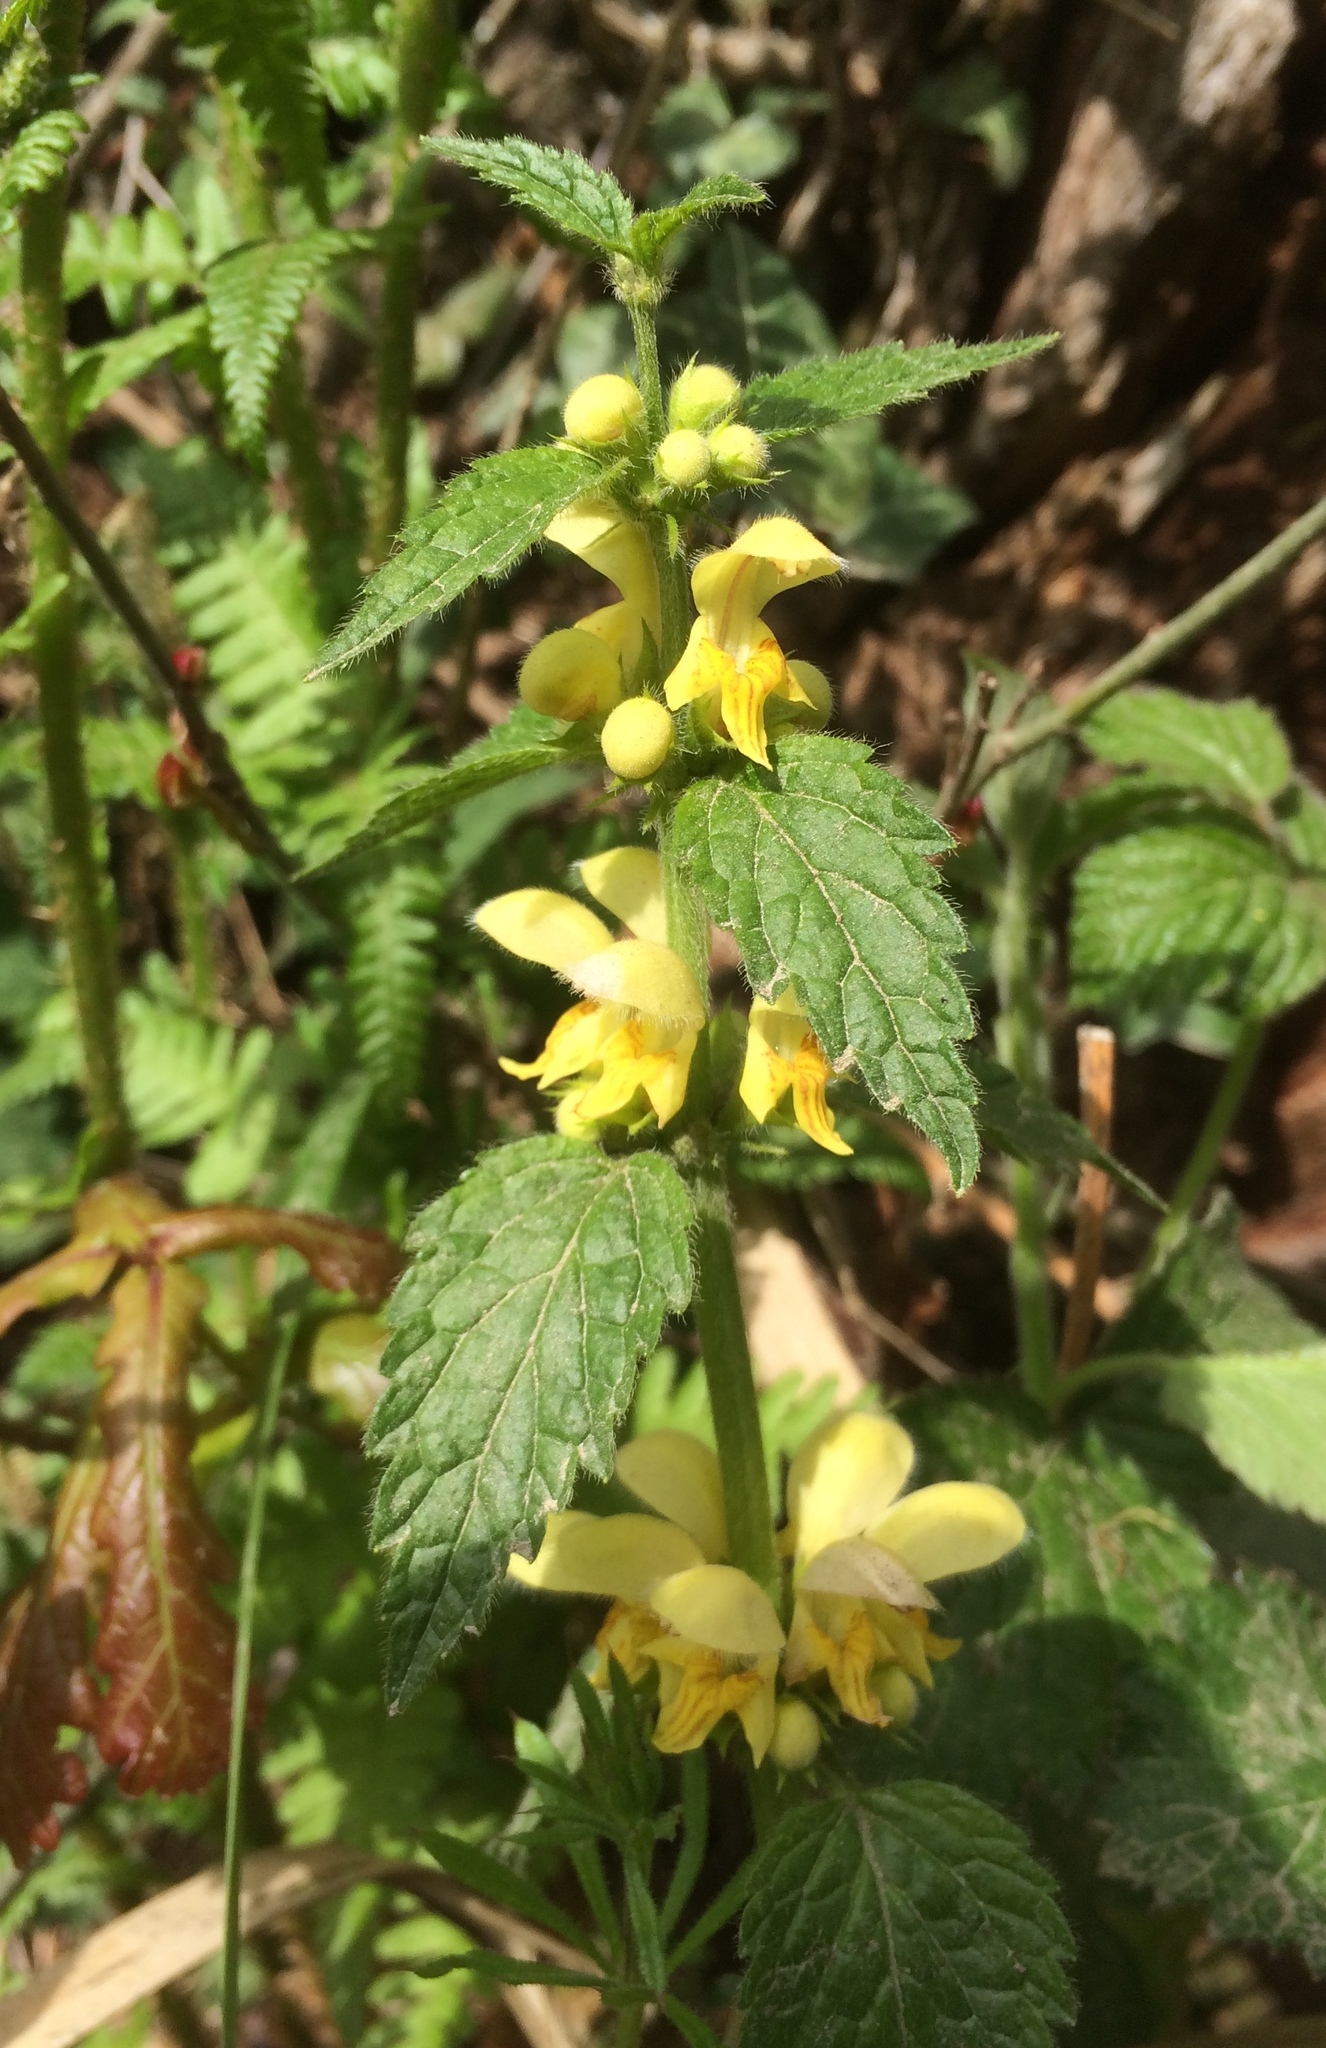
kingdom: Plantae
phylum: Tracheophyta
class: Magnoliopsida
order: Lamiales
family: Lamiaceae
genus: Lamium
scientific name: Lamium galeobdolon
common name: Yellow archangel
